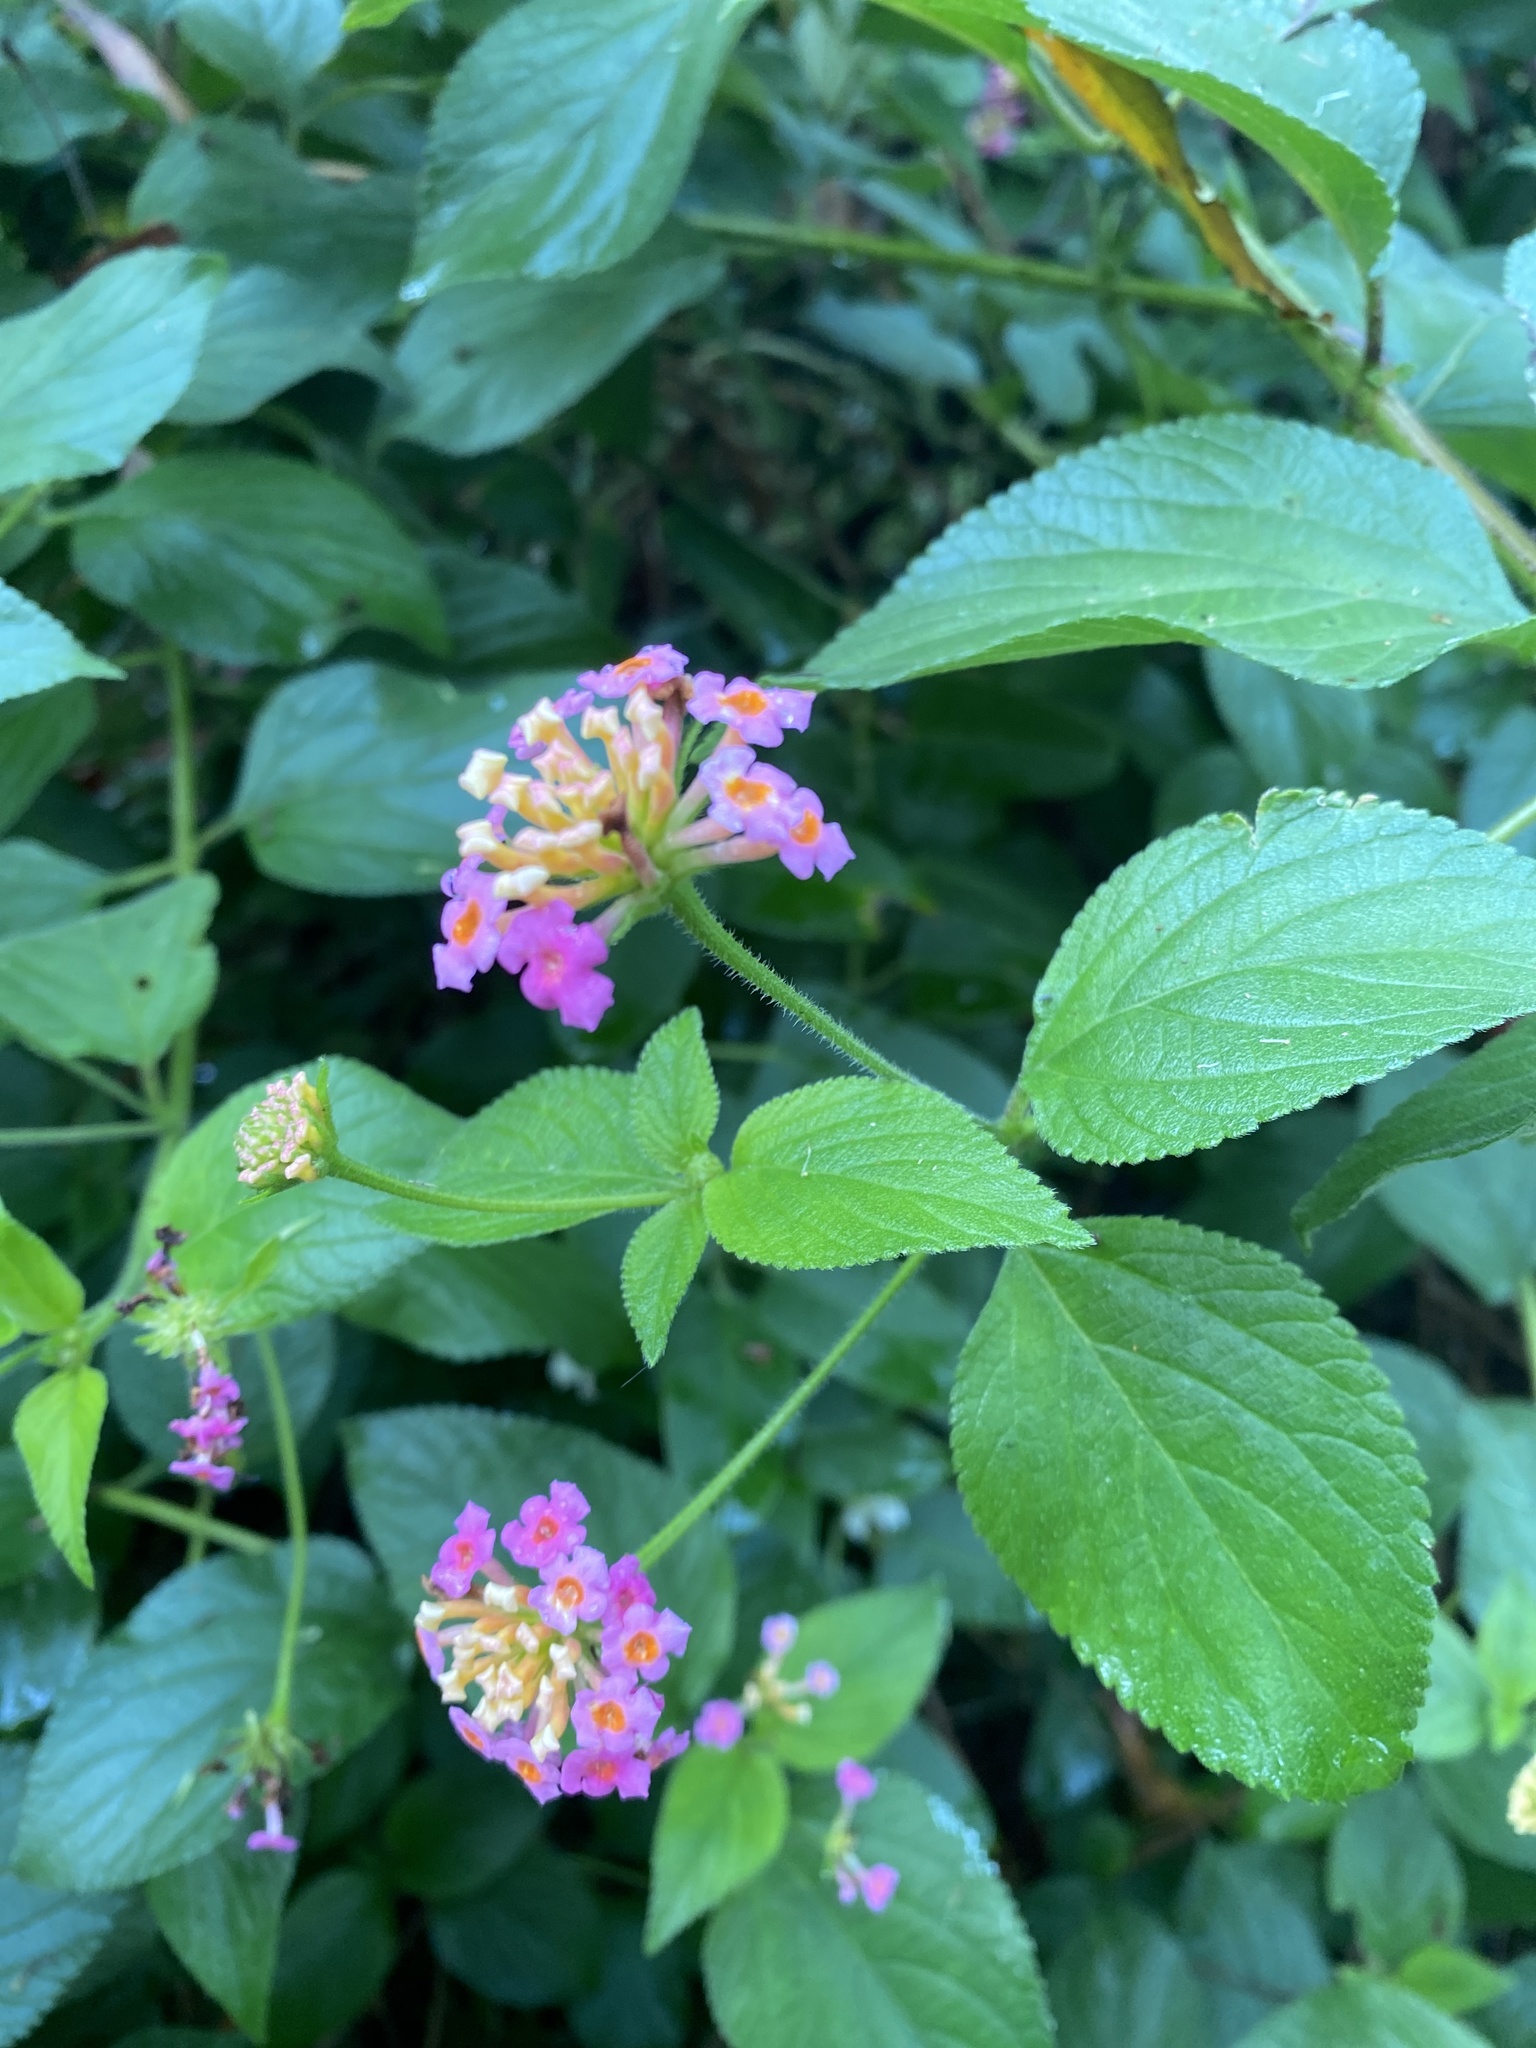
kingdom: Plantae
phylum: Tracheophyta
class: Magnoliopsida
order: Lamiales
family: Verbenaceae
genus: Lantana
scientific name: Lantana camara
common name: Lantana
